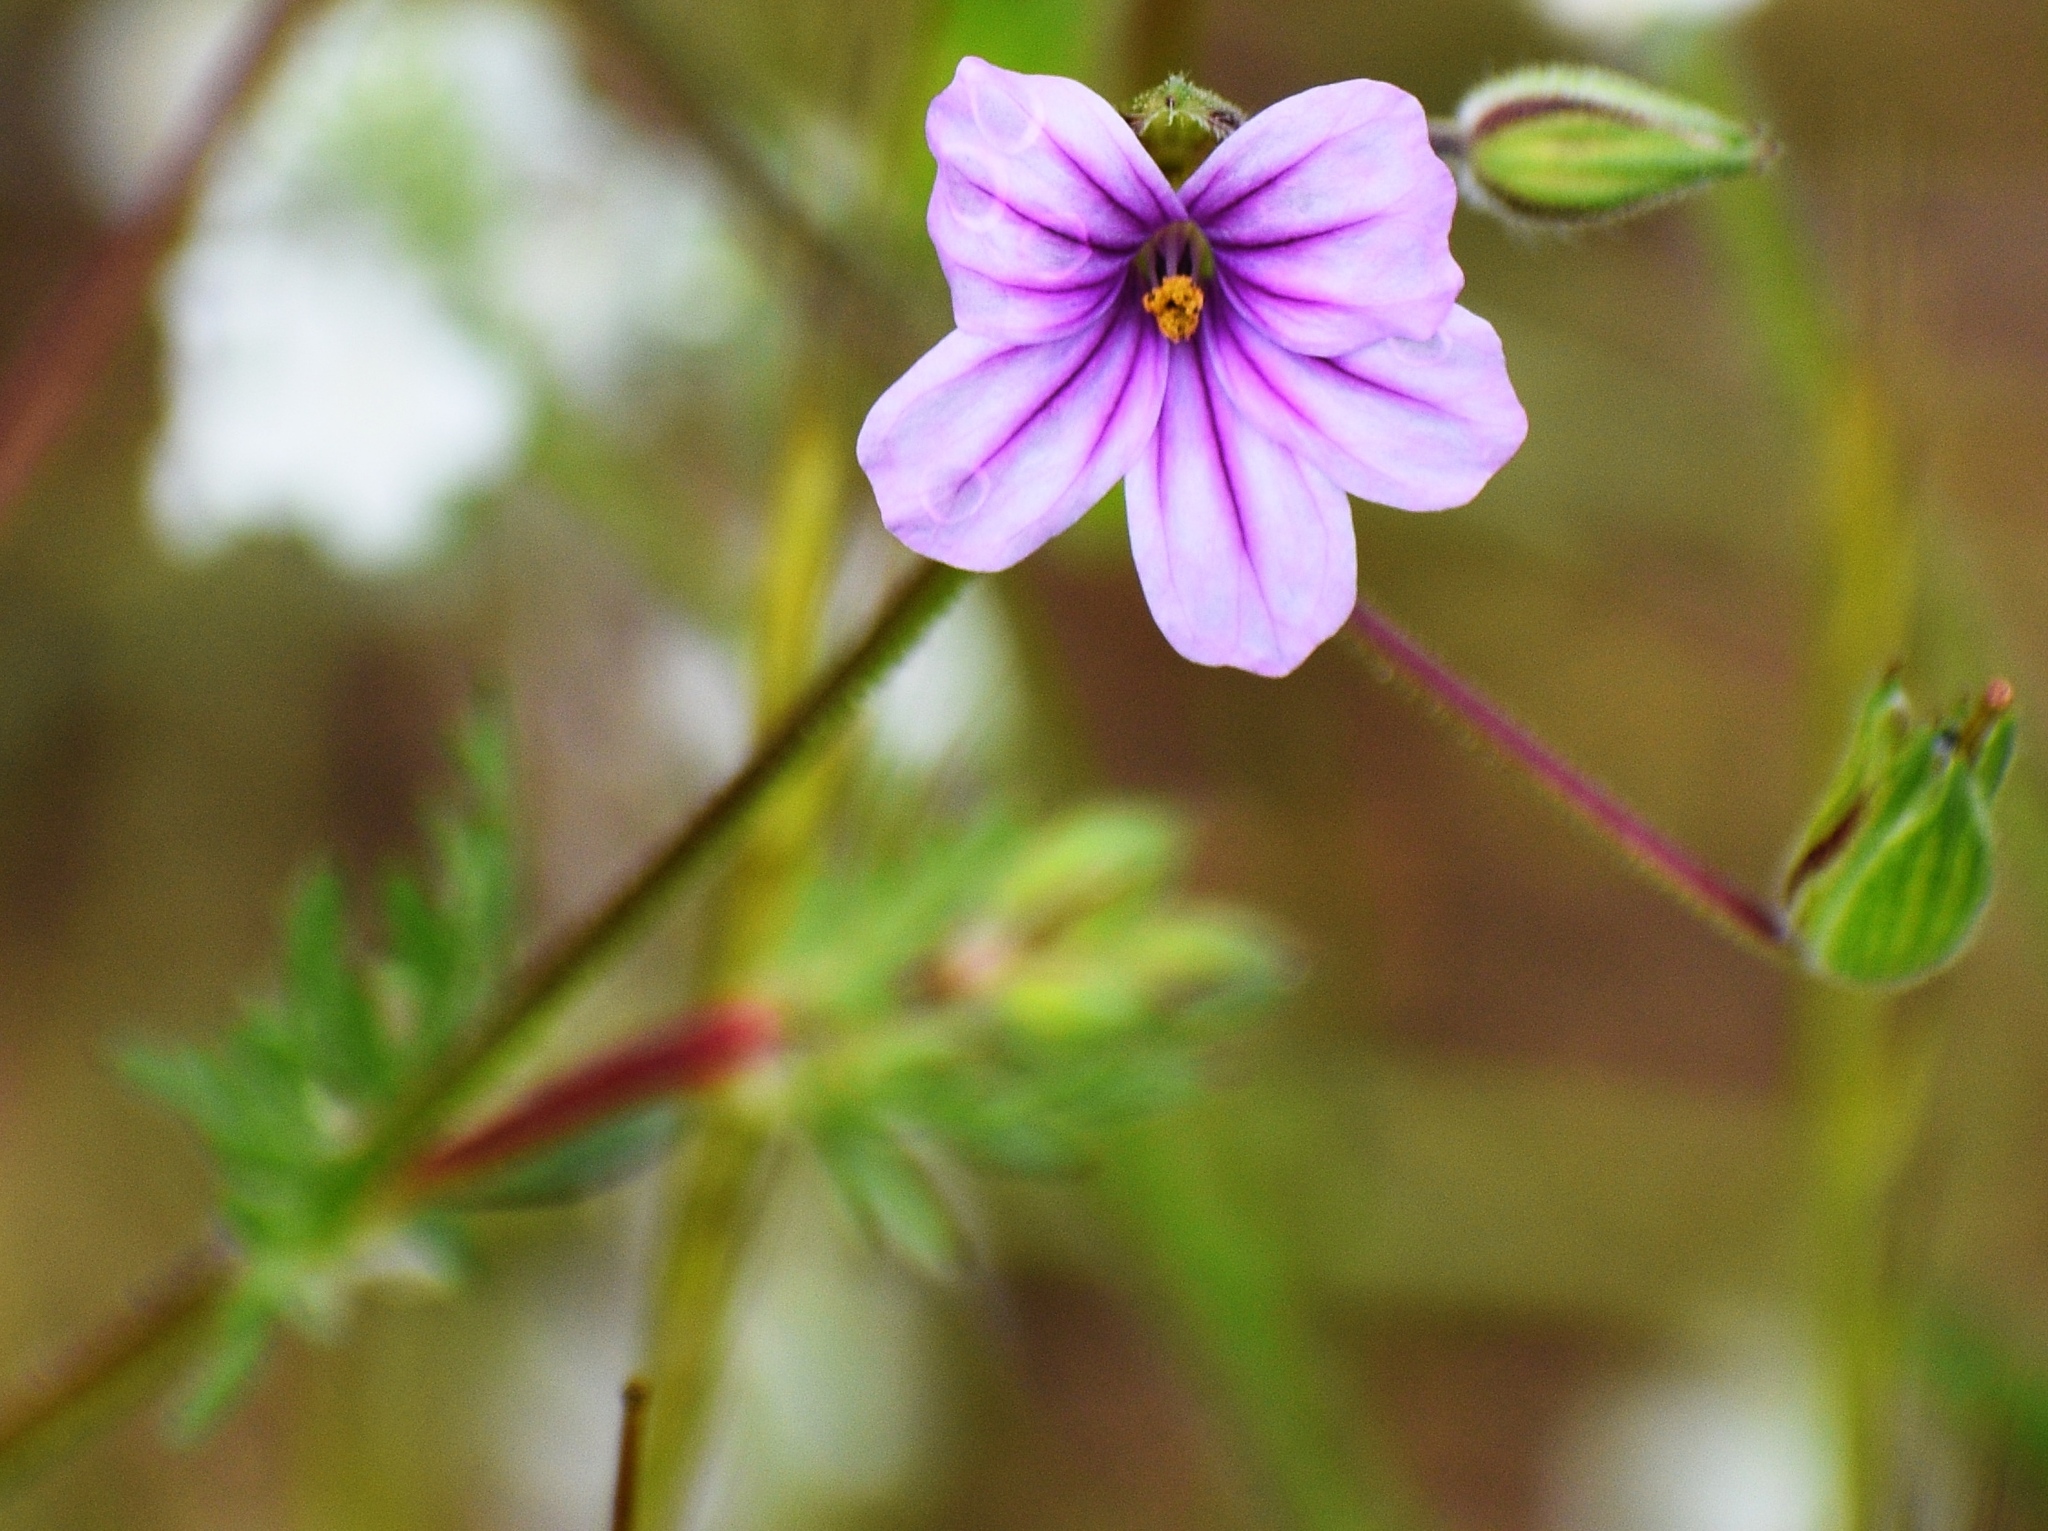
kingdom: Plantae
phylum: Tracheophyta
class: Magnoliopsida
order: Geraniales
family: Geraniaceae
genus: Erodium
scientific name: Erodium botrys
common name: Mediterranean stork's-bill
